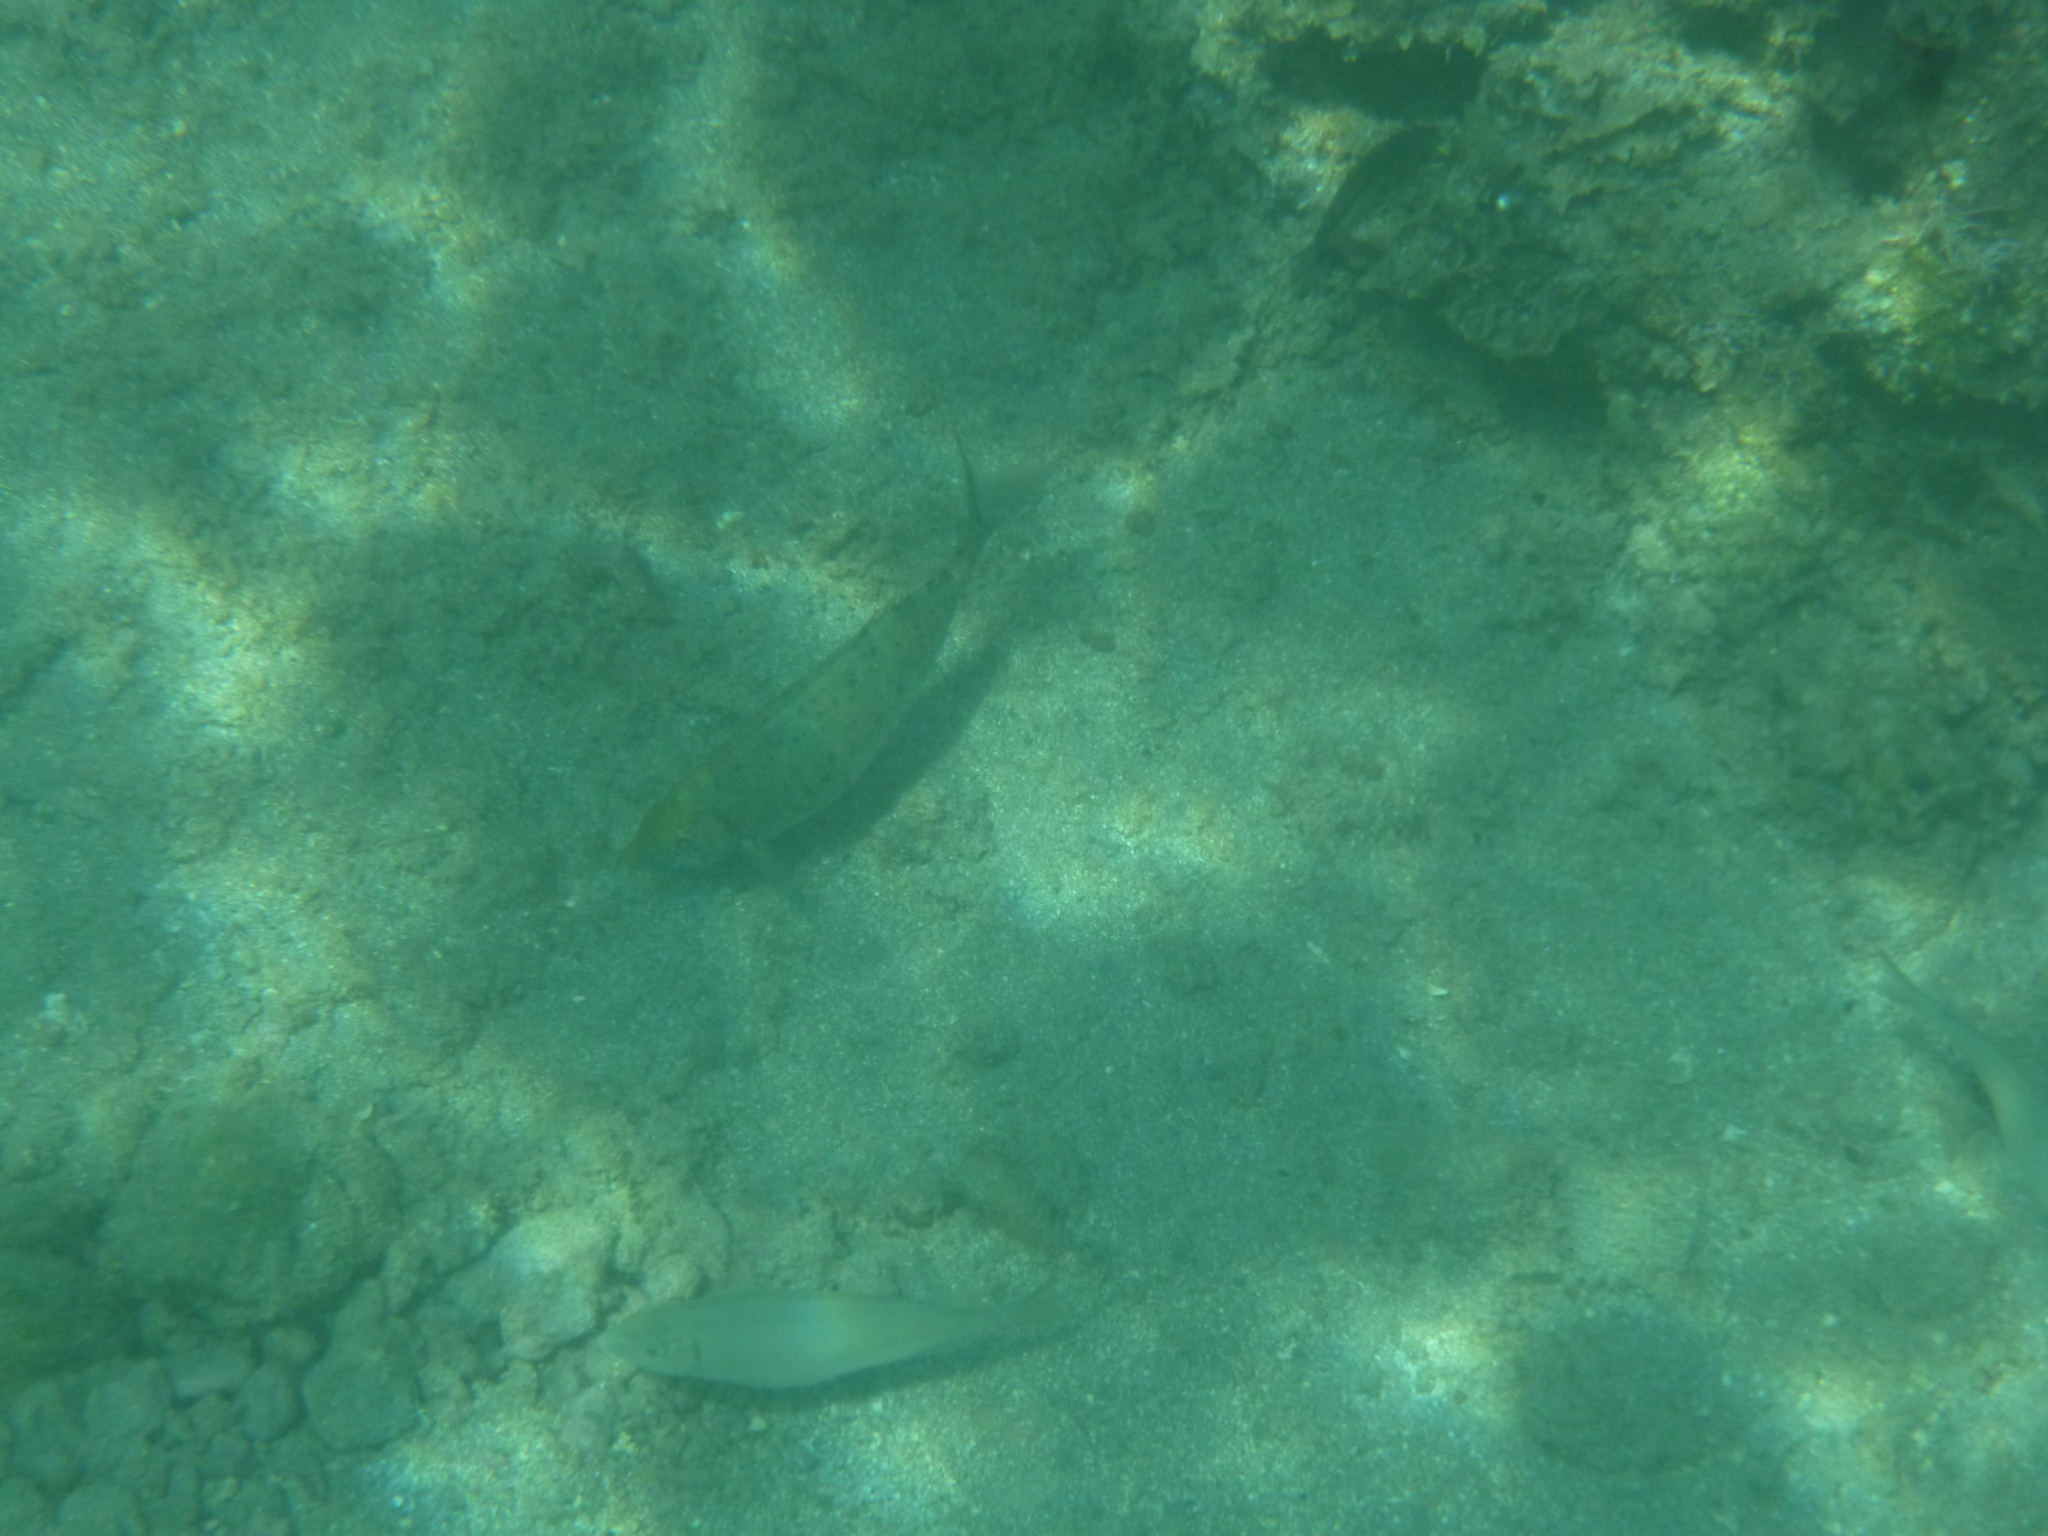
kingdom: Animalia
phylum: Chordata
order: Perciformes
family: Siganidae
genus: Siganus
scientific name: Siganus rivulatus
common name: Marbled spinefoot
